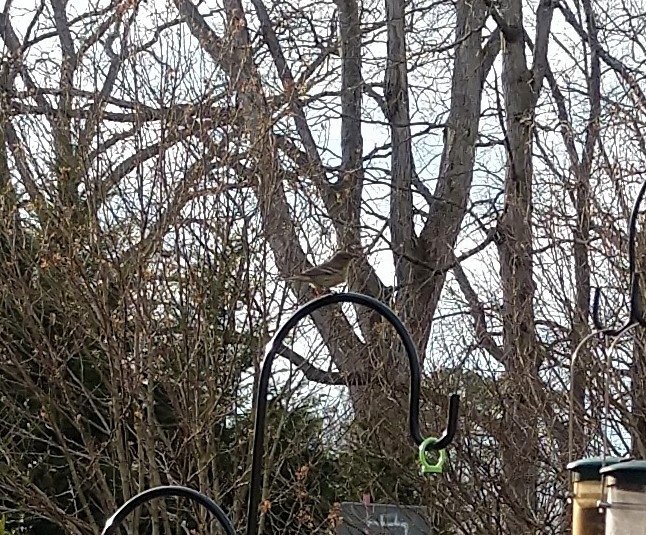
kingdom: Animalia
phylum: Chordata
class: Aves
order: Passeriformes
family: Parulidae
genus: Setophaga
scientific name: Setophaga pinus
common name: Pine warbler
